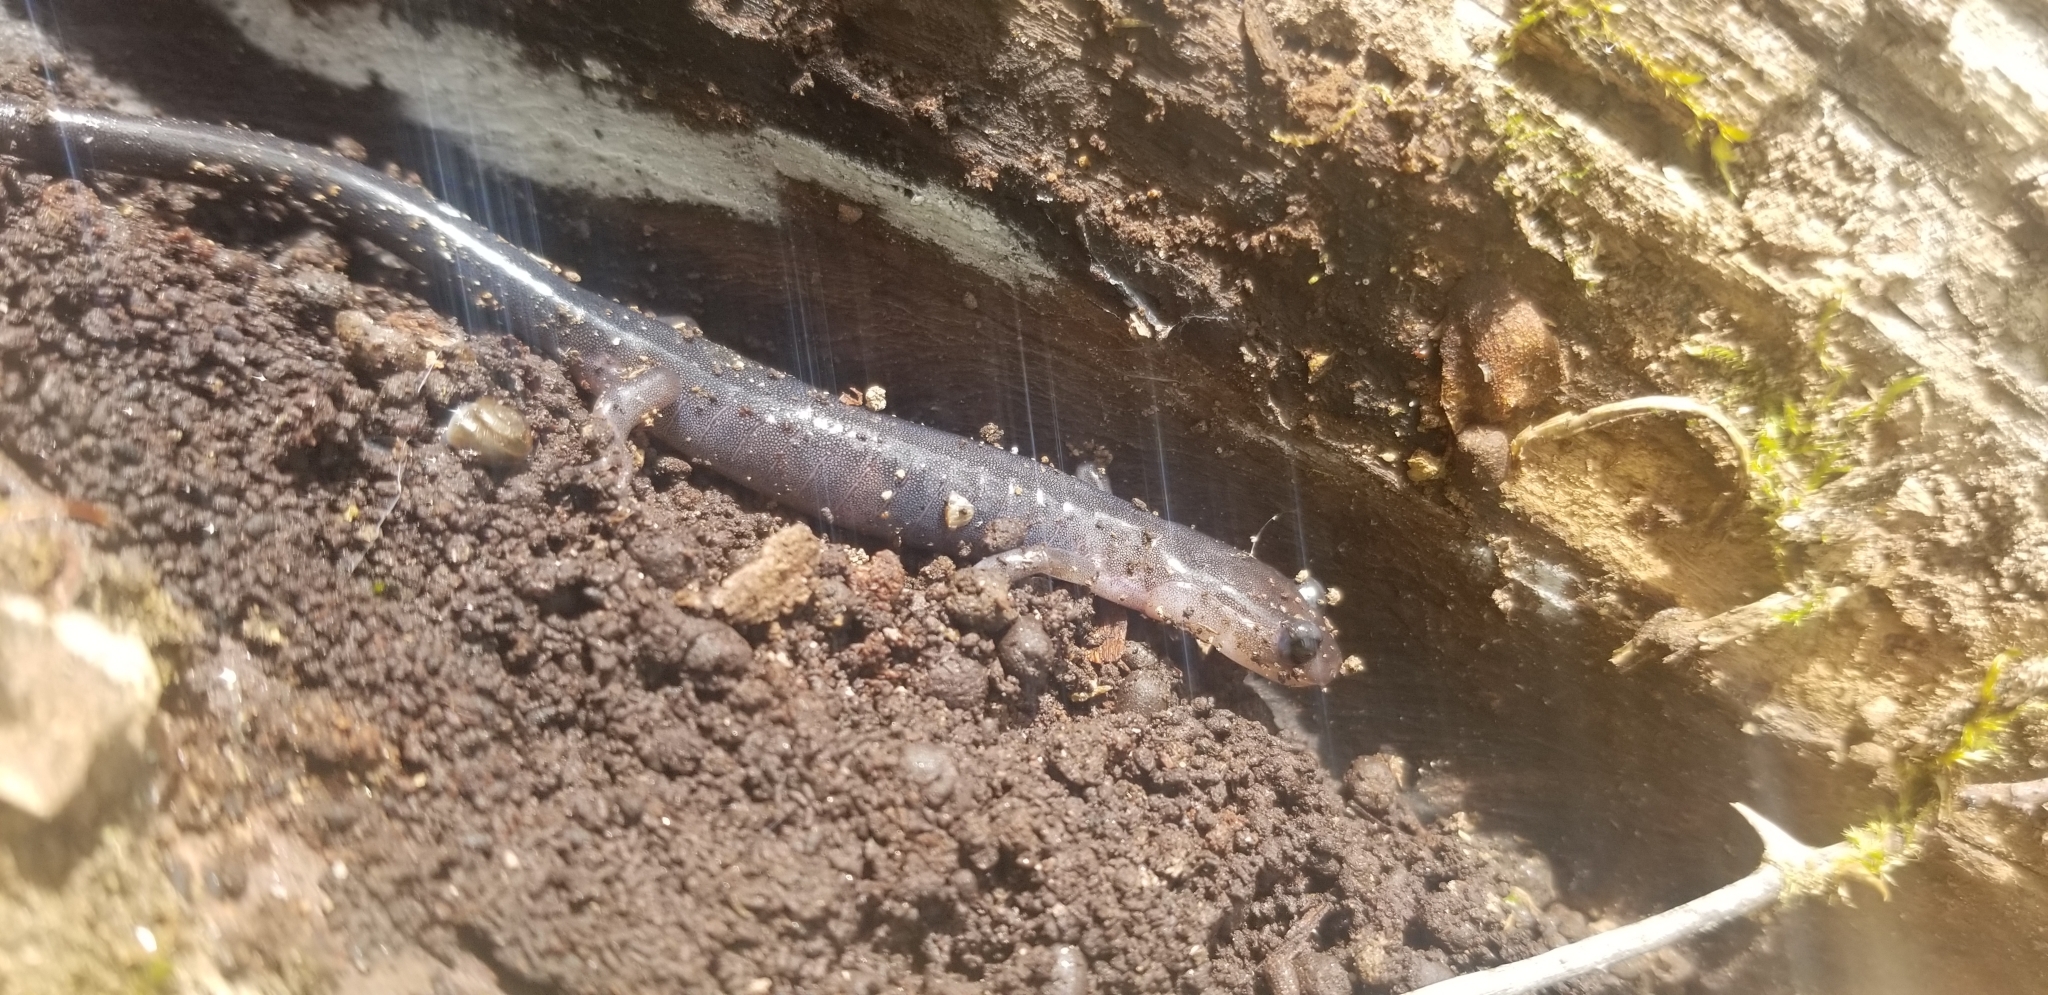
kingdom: Animalia
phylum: Chordata
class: Amphibia
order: Caudata
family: Plethodontidae
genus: Plethodon
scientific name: Plethodon montanus
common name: Northern gray-cheeked salamander
